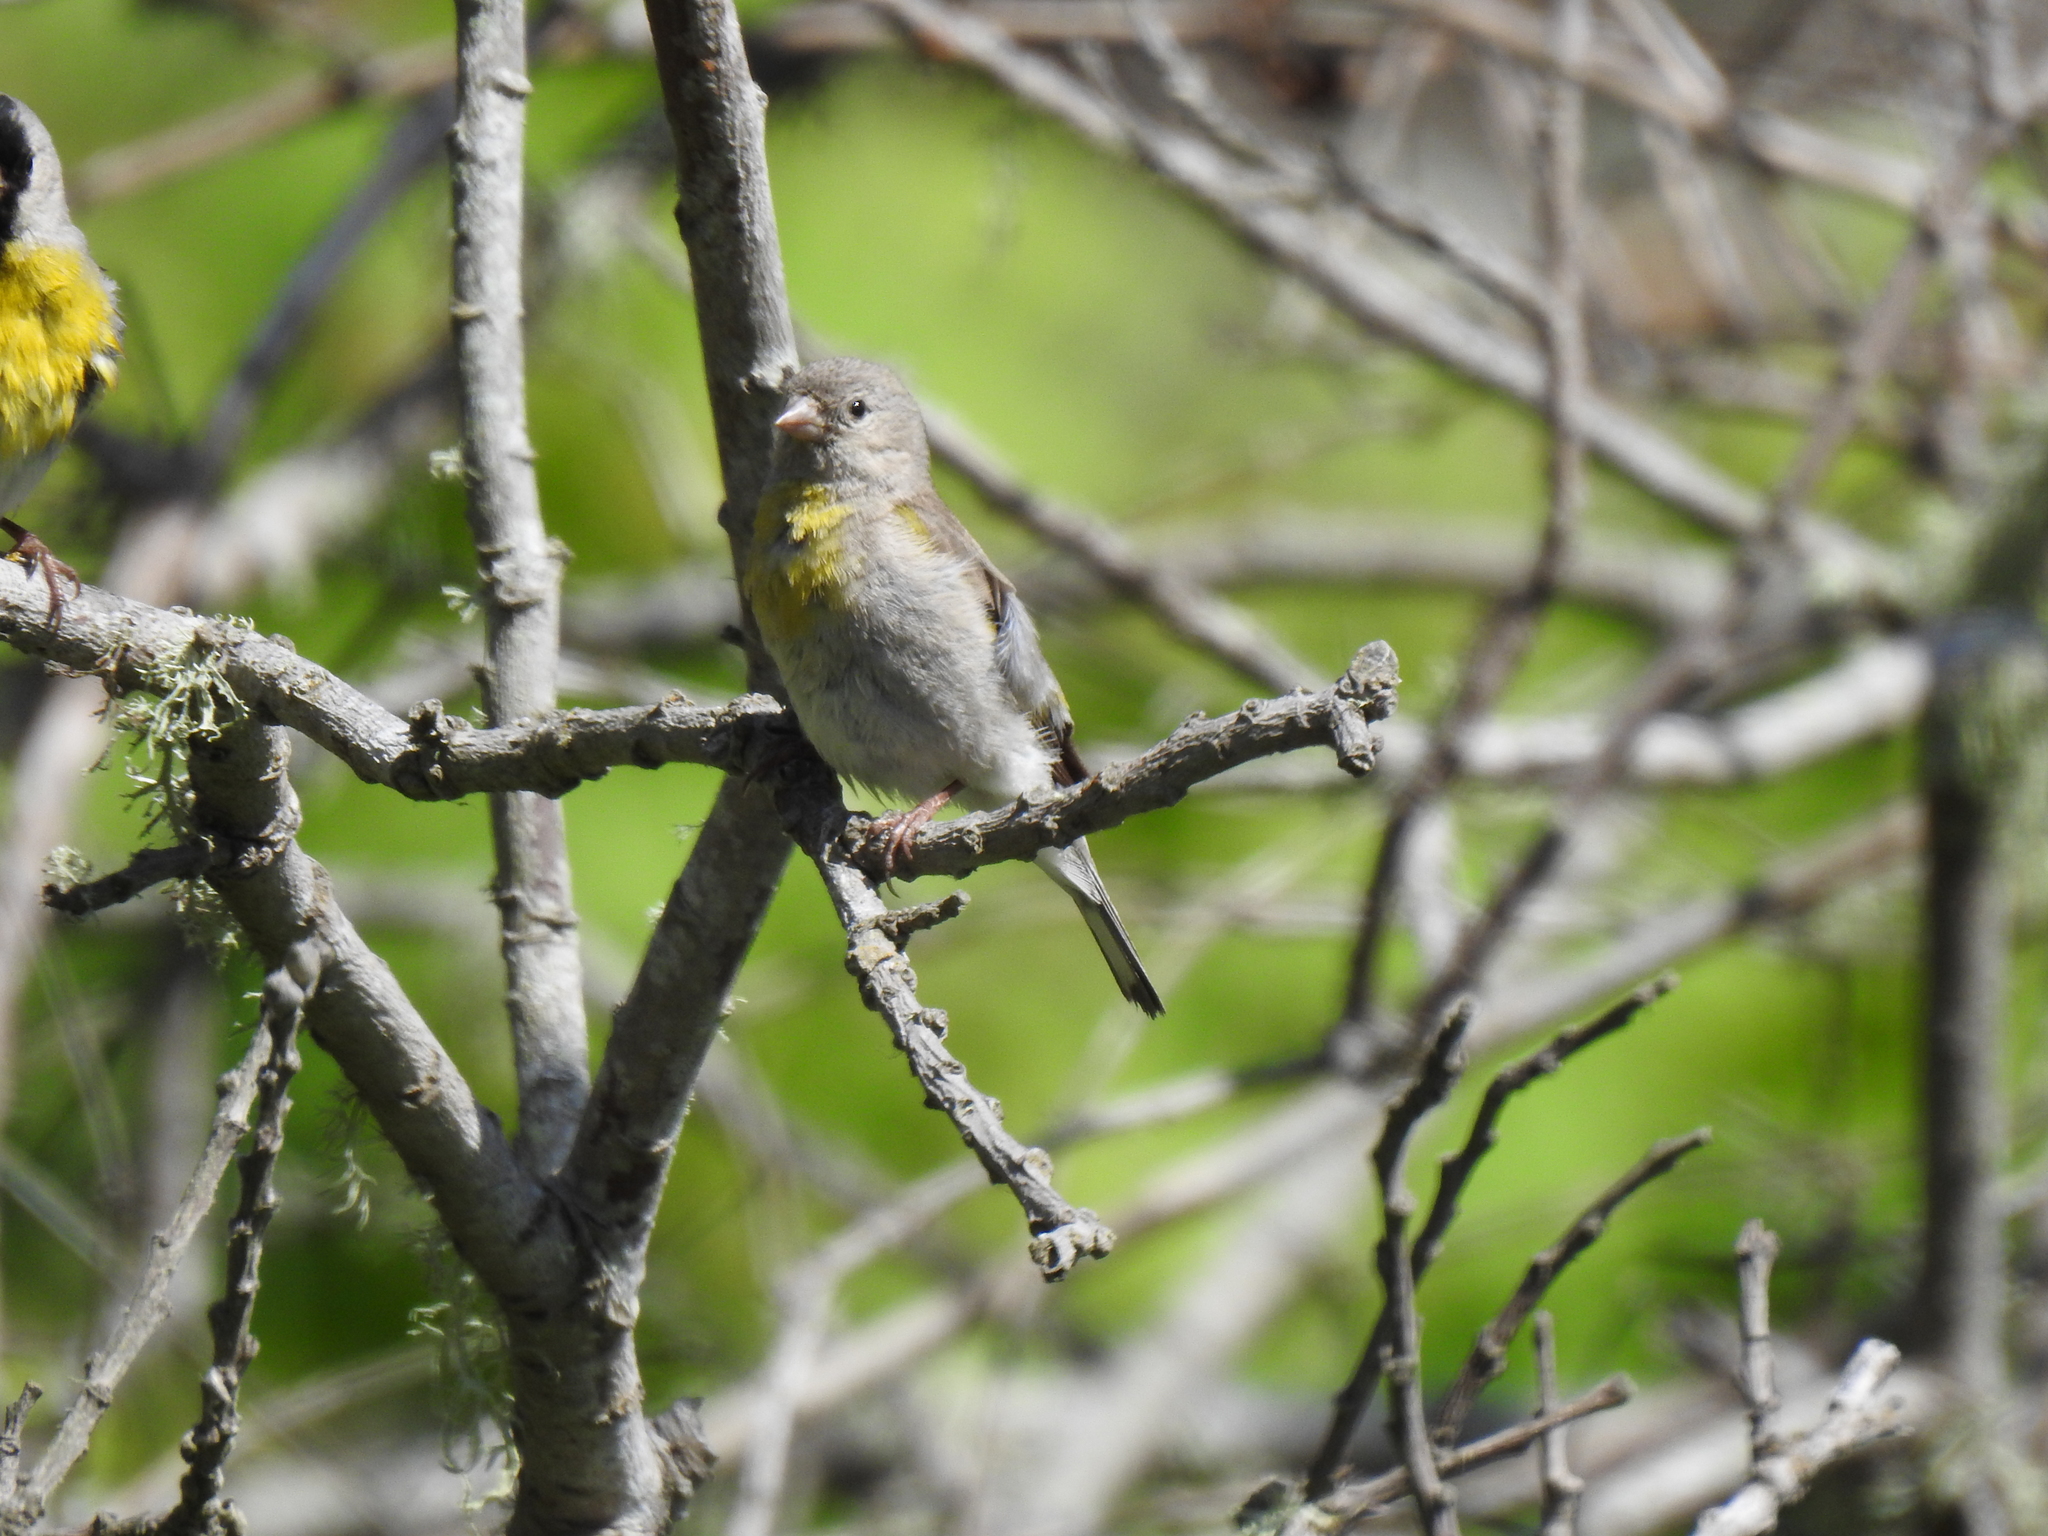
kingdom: Animalia
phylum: Chordata
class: Aves
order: Passeriformes
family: Fringillidae
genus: Spinus
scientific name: Spinus lawrencei
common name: Lawrence's goldfinch
